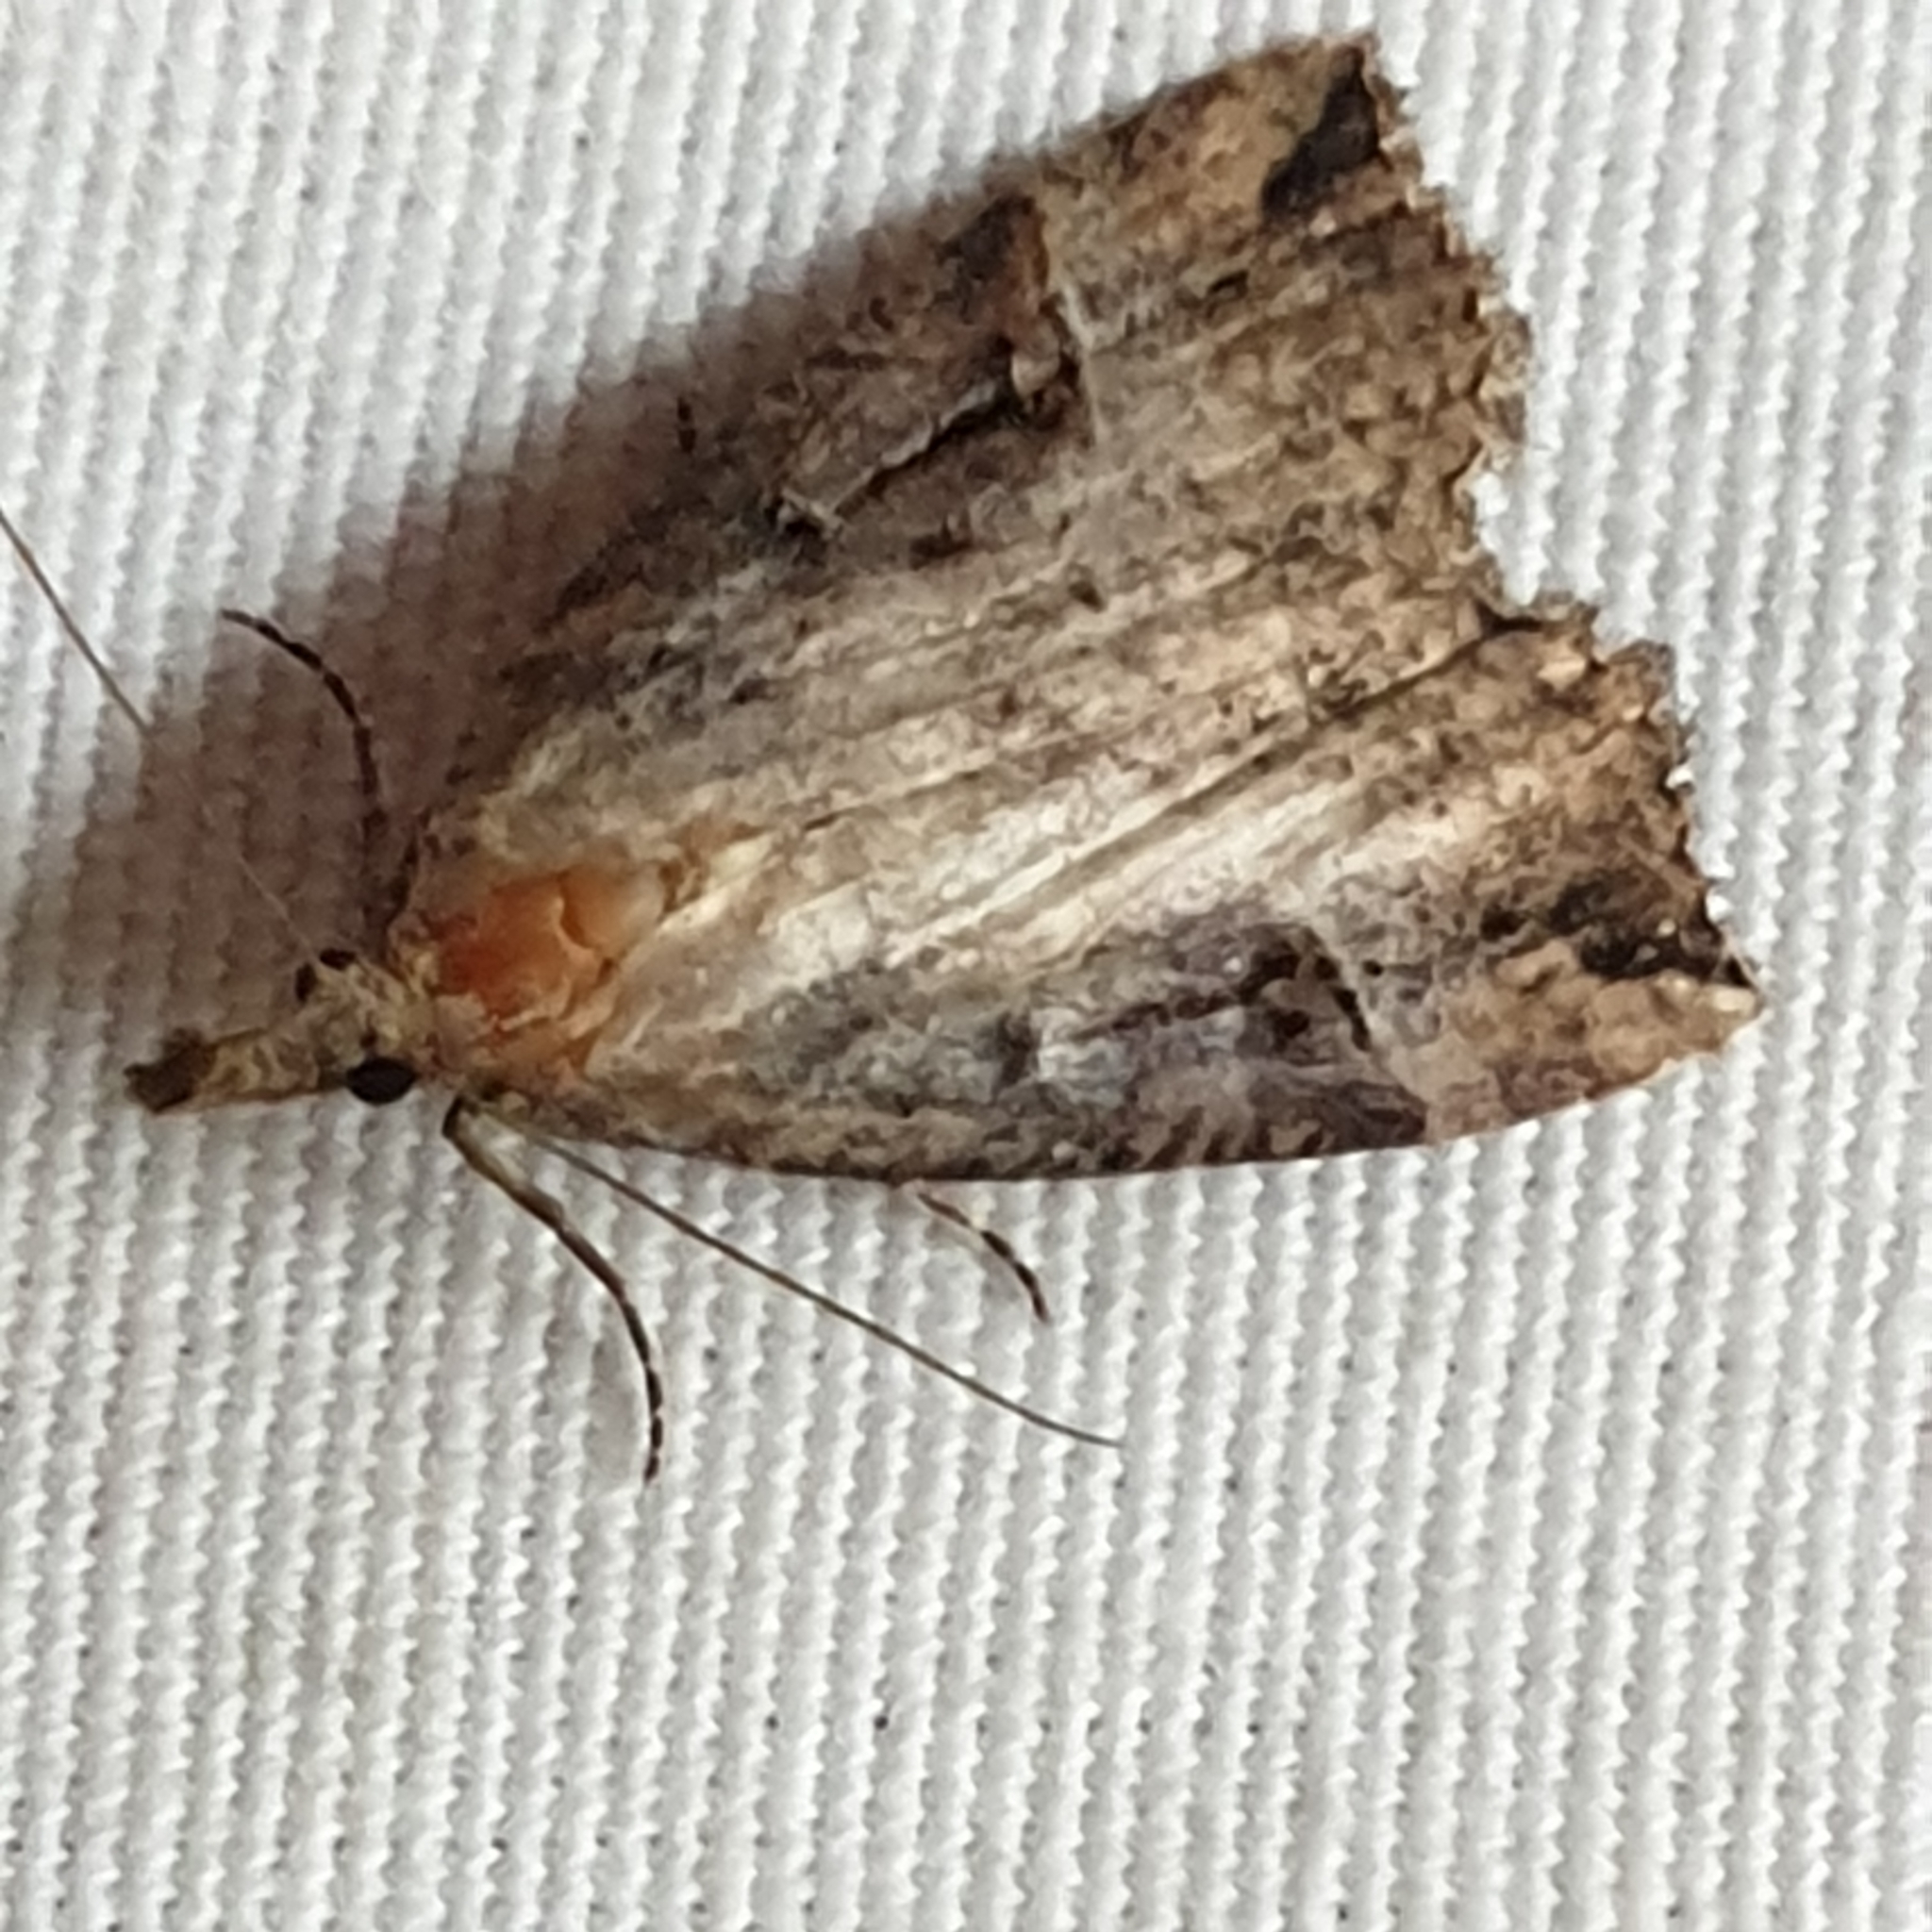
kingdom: Animalia
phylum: Arthropoda
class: Insecta
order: Lepidoptera
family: Erebidae
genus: Hypena
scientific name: Hypena rostralis
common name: Buttoned snout
